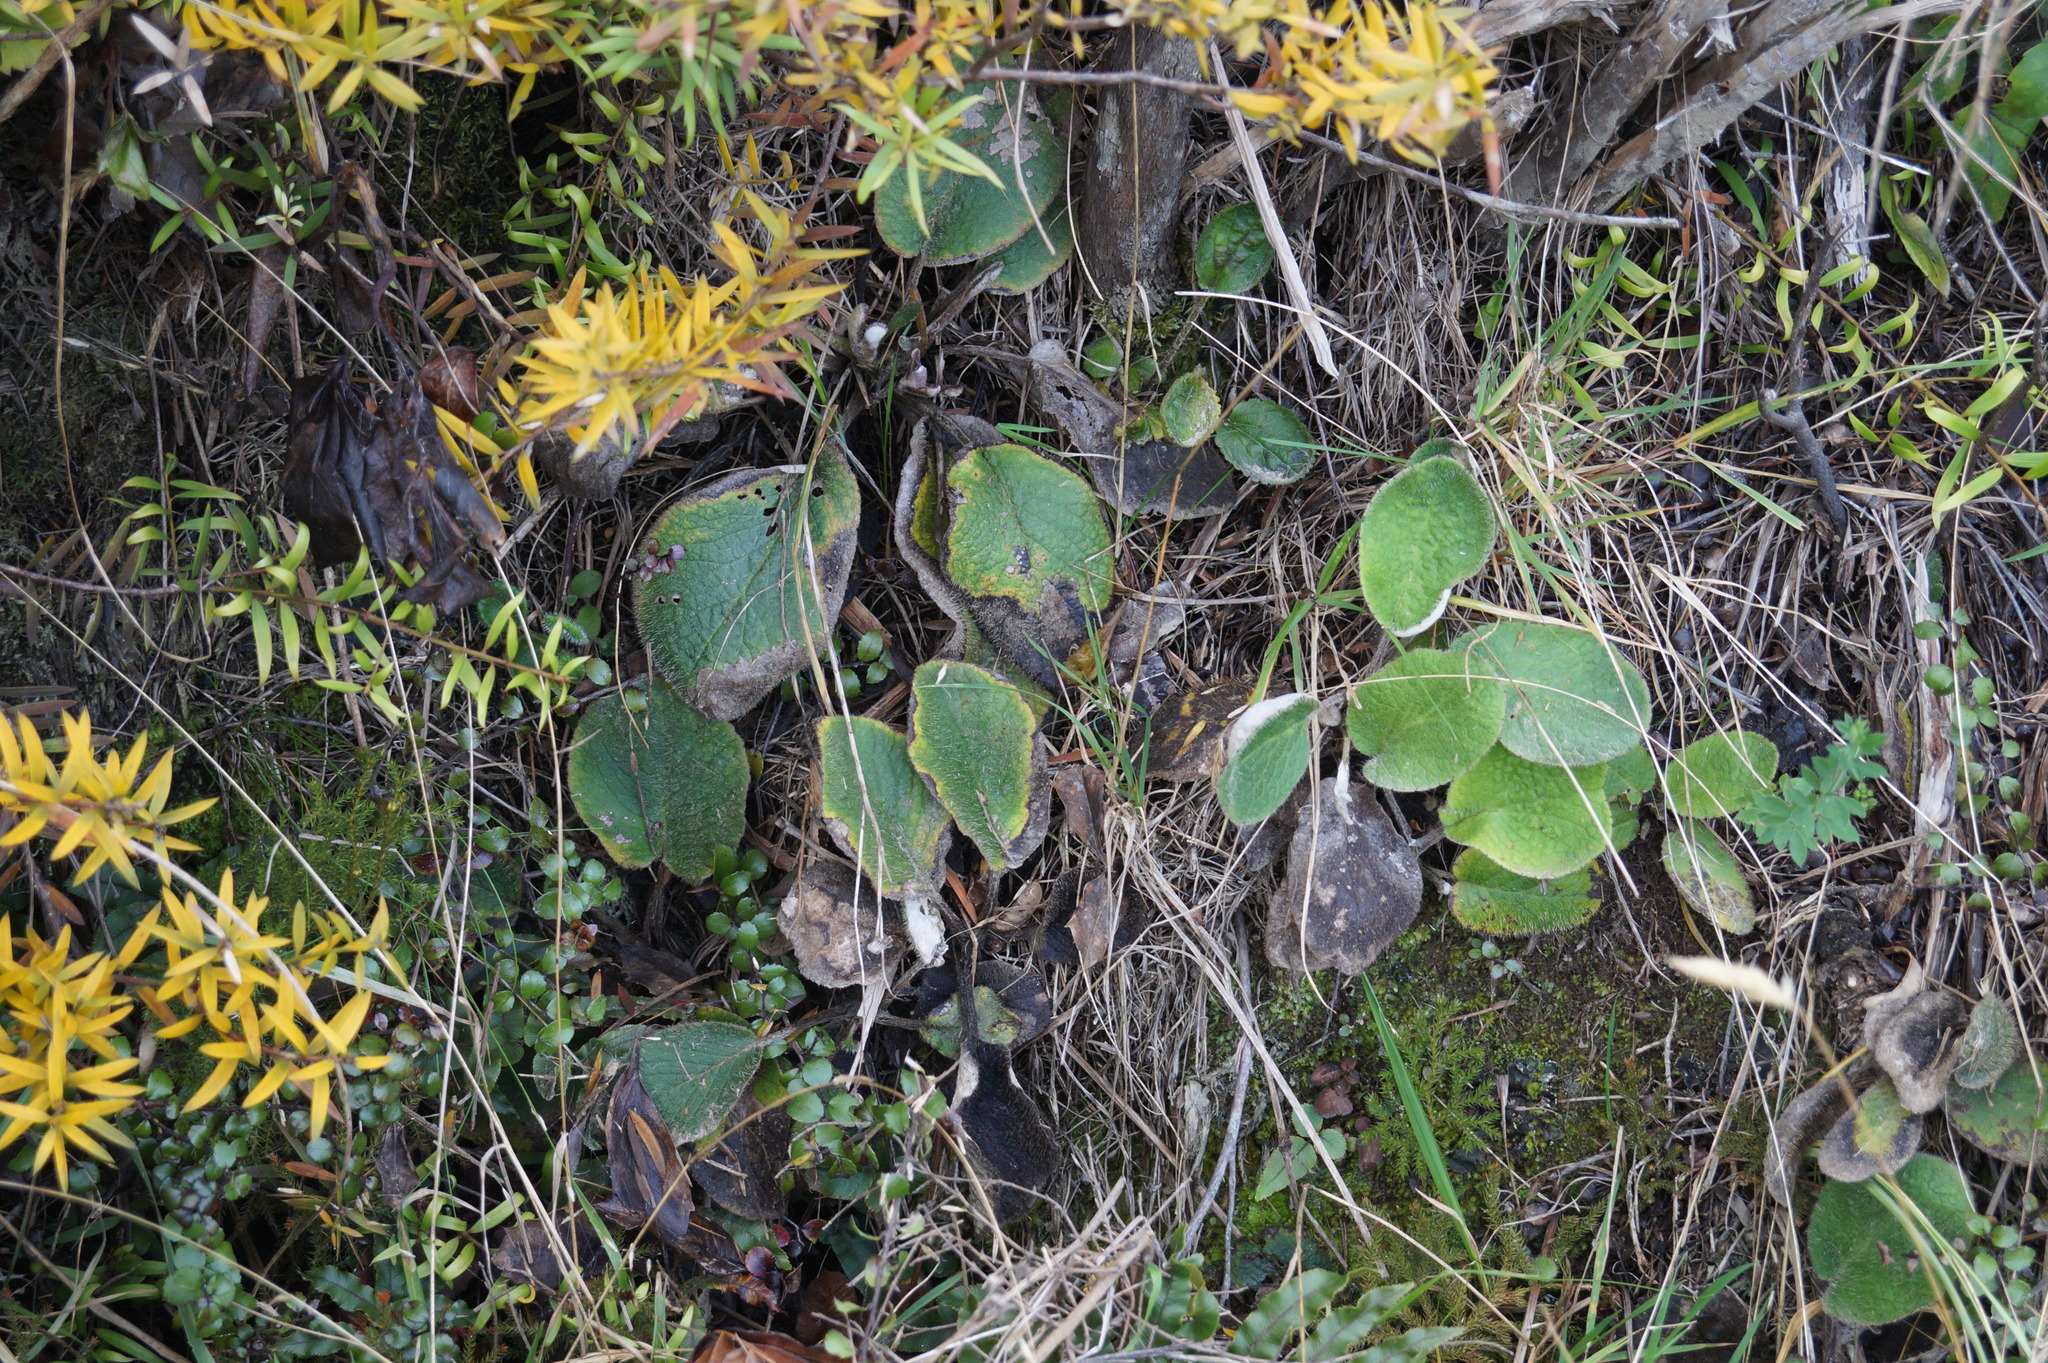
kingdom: Plantae
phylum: Tracheophyta
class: Magnoliopsida
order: Asterales
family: Asteraceae
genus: Brachyglottis
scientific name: Brachyglottis lagopus
